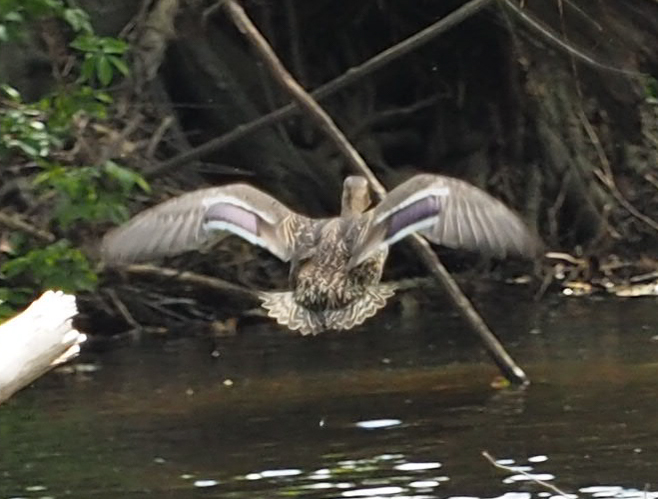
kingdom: Animalia
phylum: Chordata
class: Aves
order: Anseriformes
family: Anatidae
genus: Anas
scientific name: Anas platyrhynchos
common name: Mallard
